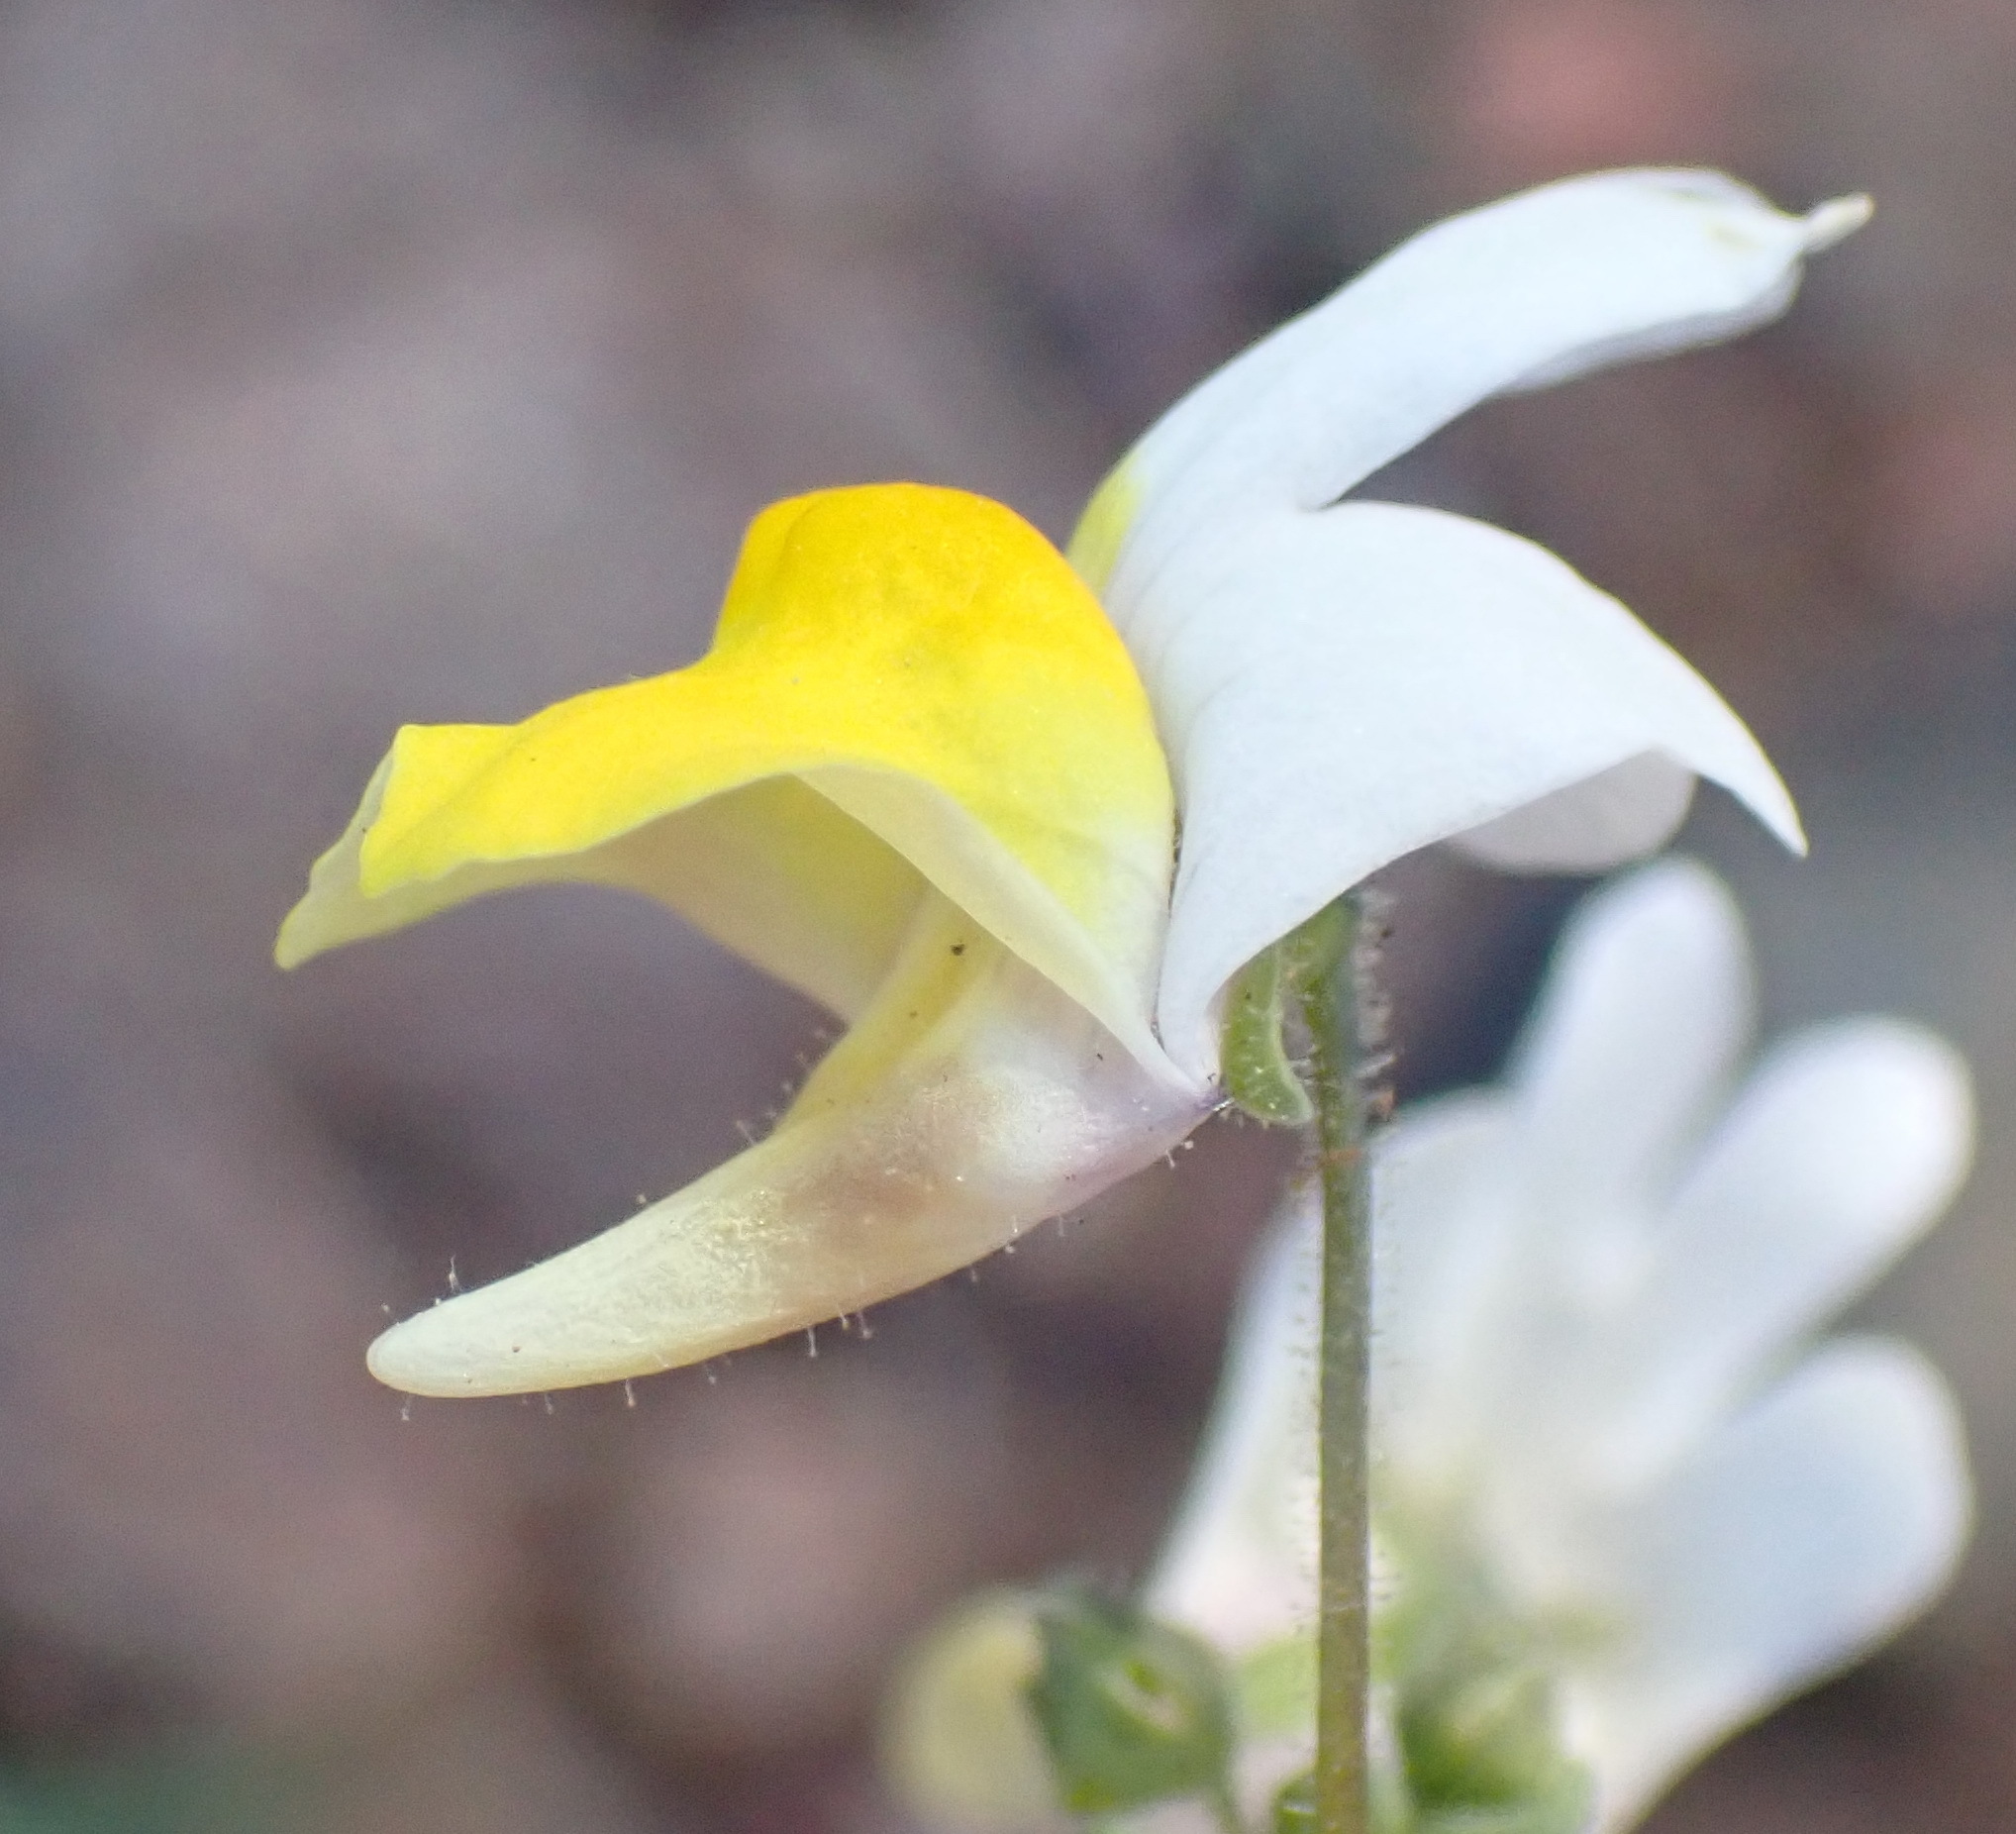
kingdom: Plantae
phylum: Tracheophyta
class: Magnoliopsida
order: Lamiales
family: Scrophulariaceae
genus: Nemesia
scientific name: Nemesia ligulata
